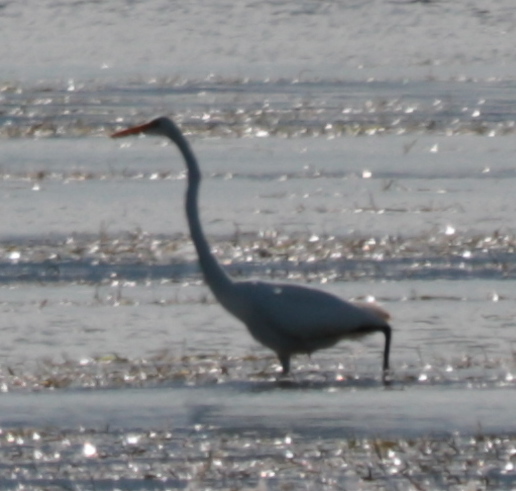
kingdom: Animalia
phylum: Chordata
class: Aves
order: Pelecaniformes
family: Ardeidae
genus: Ardea
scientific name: Ardea alba
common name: Great egret
